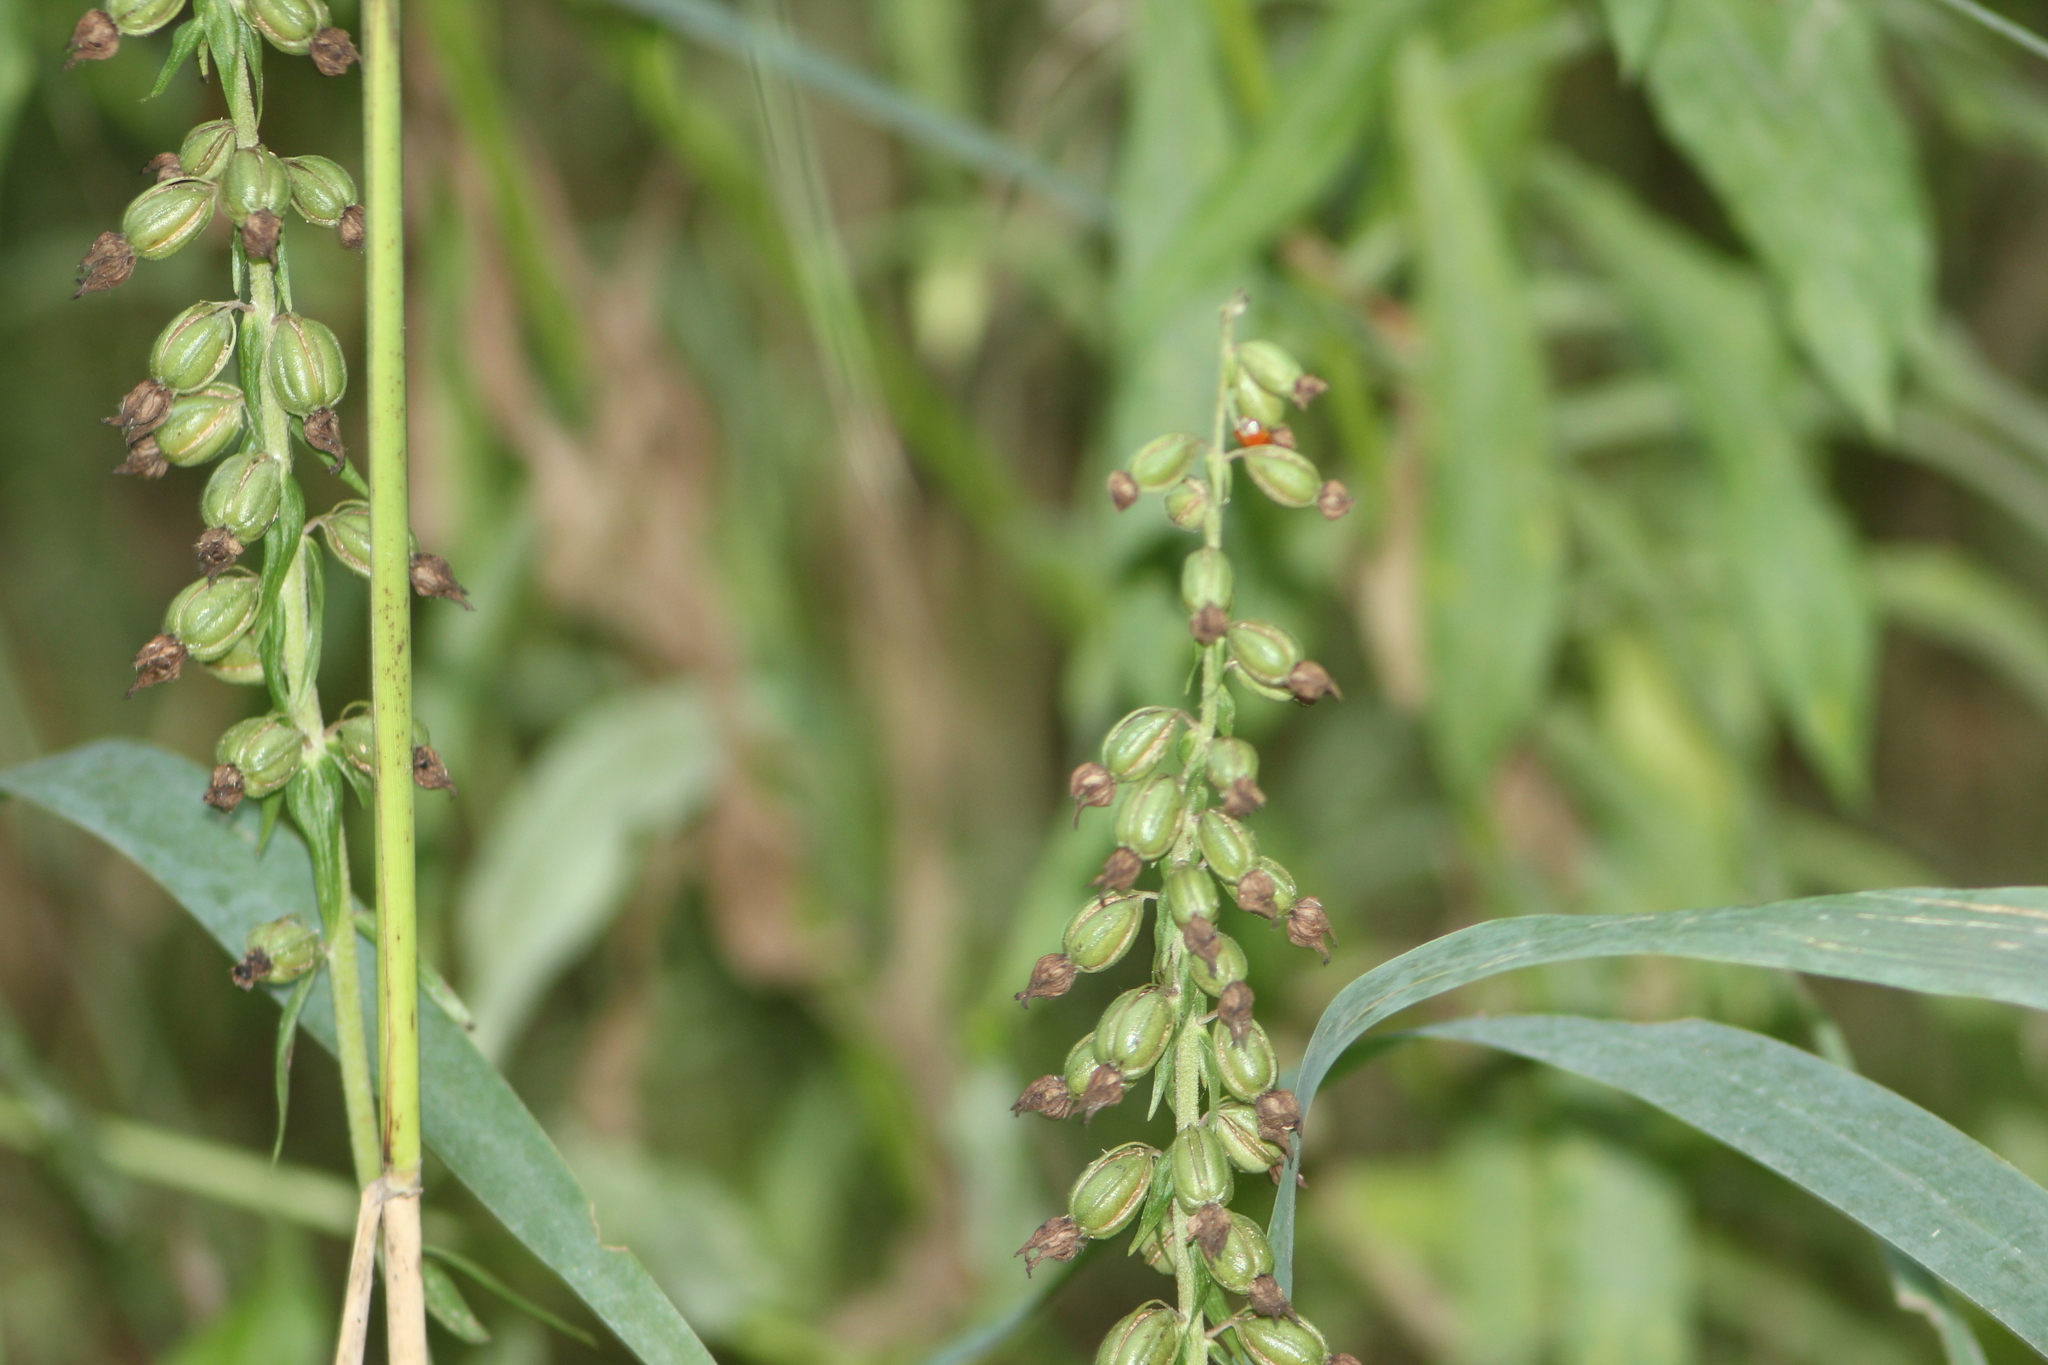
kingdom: Plantae
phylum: Tracheophyta
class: Liliopsida
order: Asparagales
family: Orchidaceae
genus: Epipactis
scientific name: Epipactis helleborine
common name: Broad-leaved helleborine
